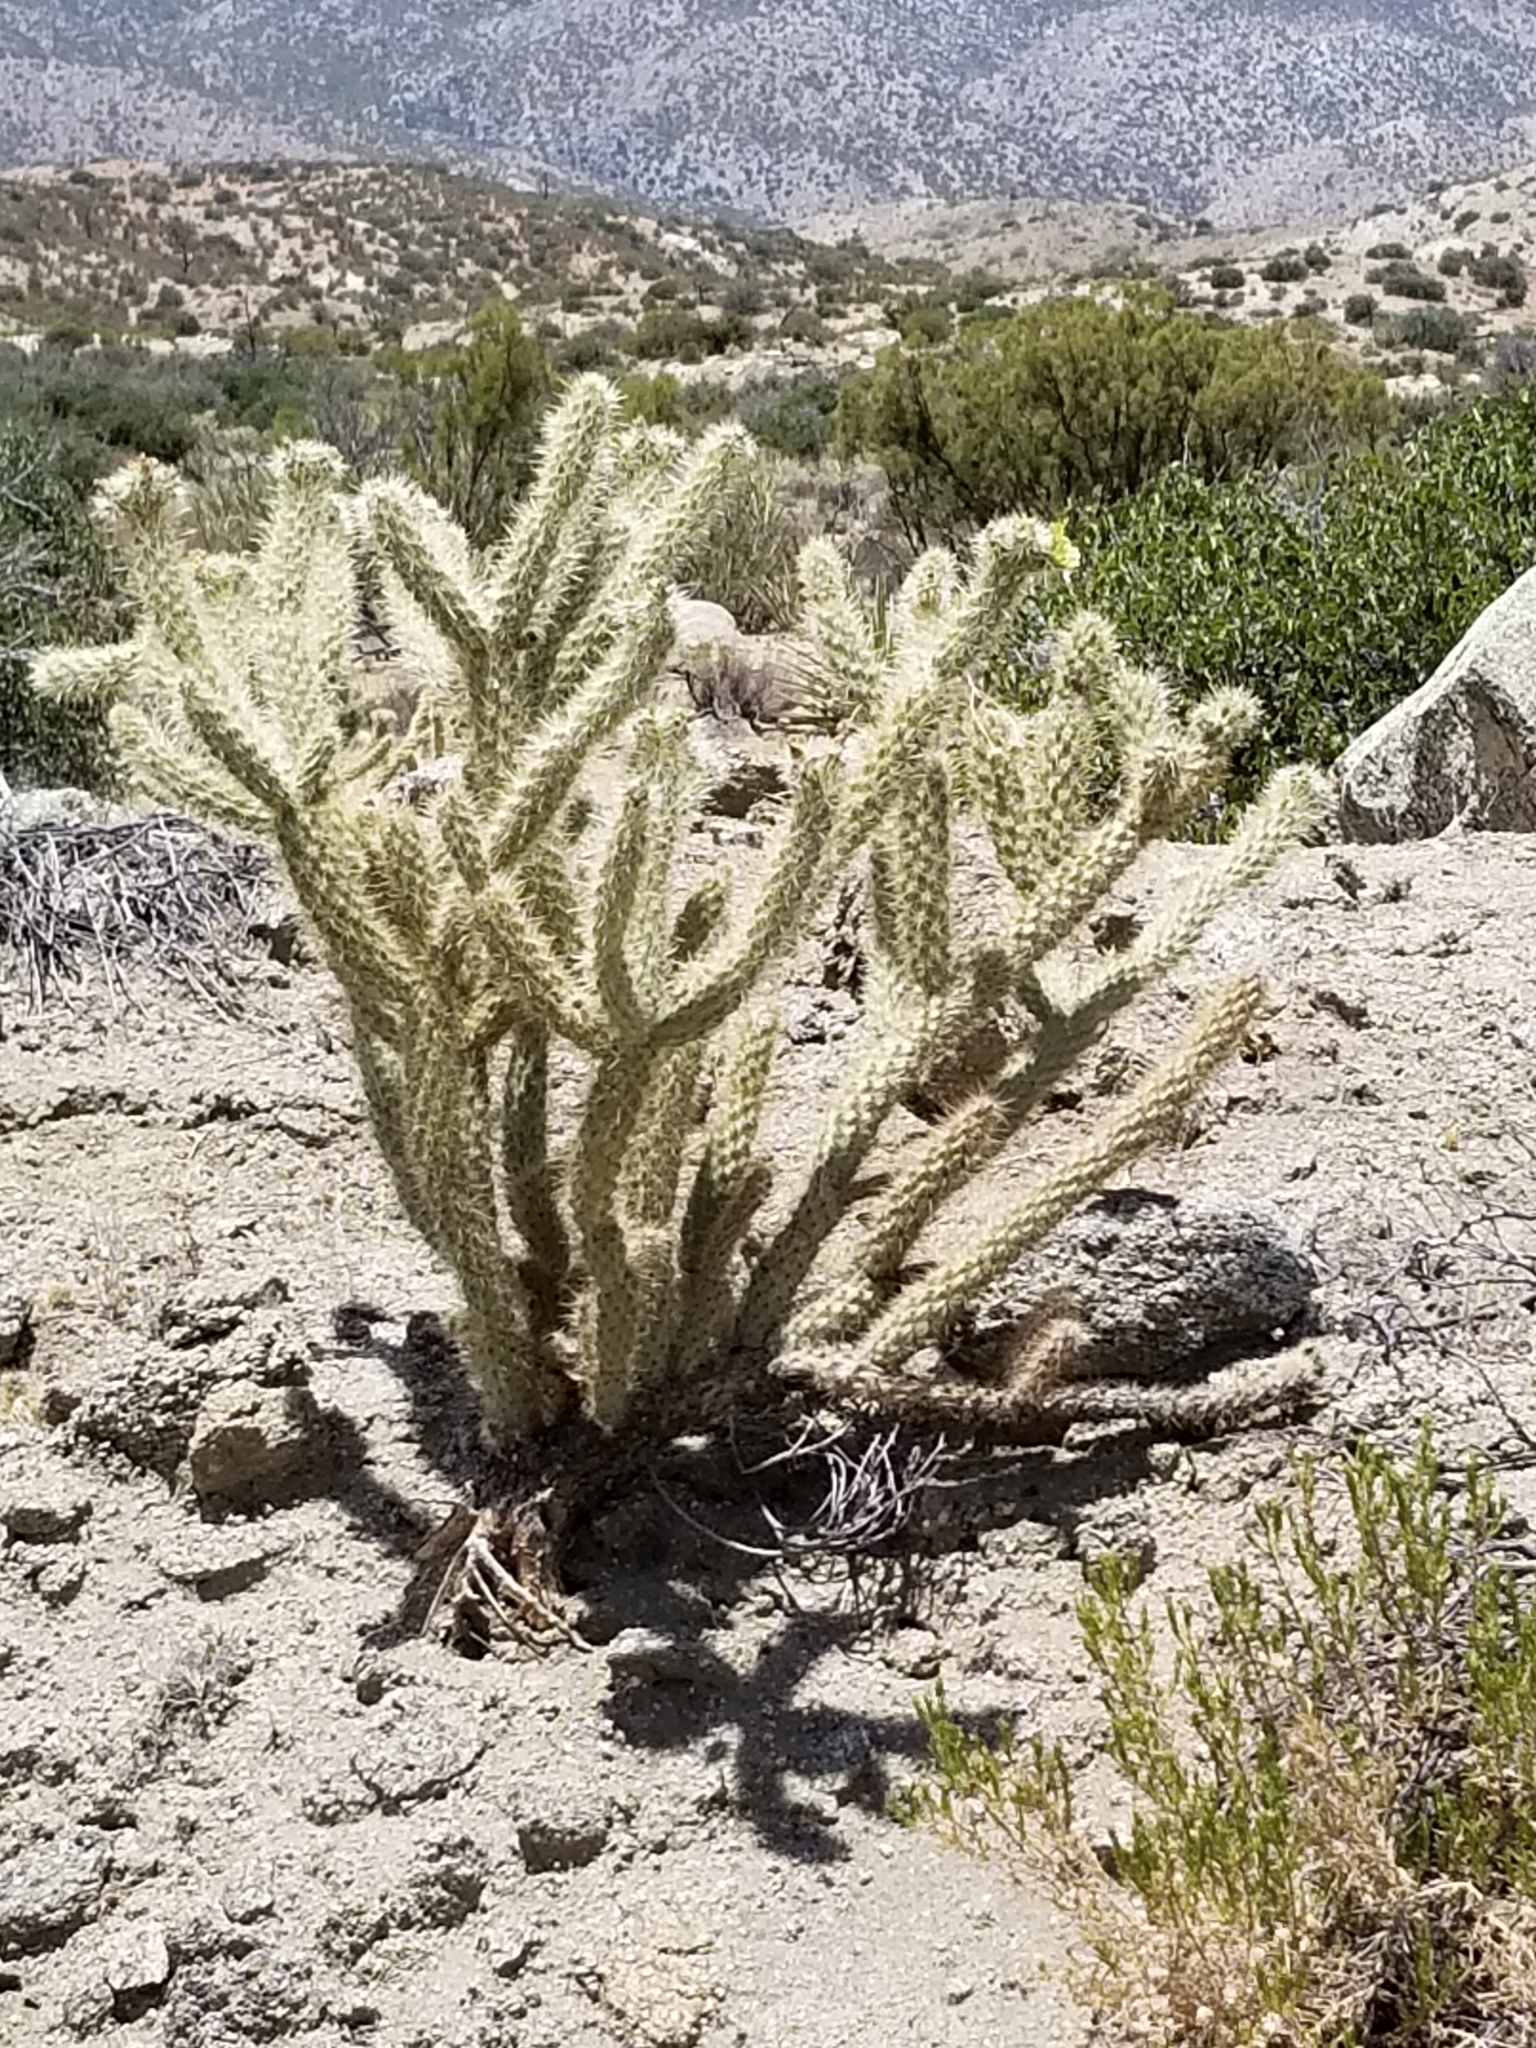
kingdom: Plantae
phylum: Tracheophyta
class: Magnoliopsida
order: Caryophyllales
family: Cactaceae
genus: Cylindropuntia
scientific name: Cylindropuntia ganderi
